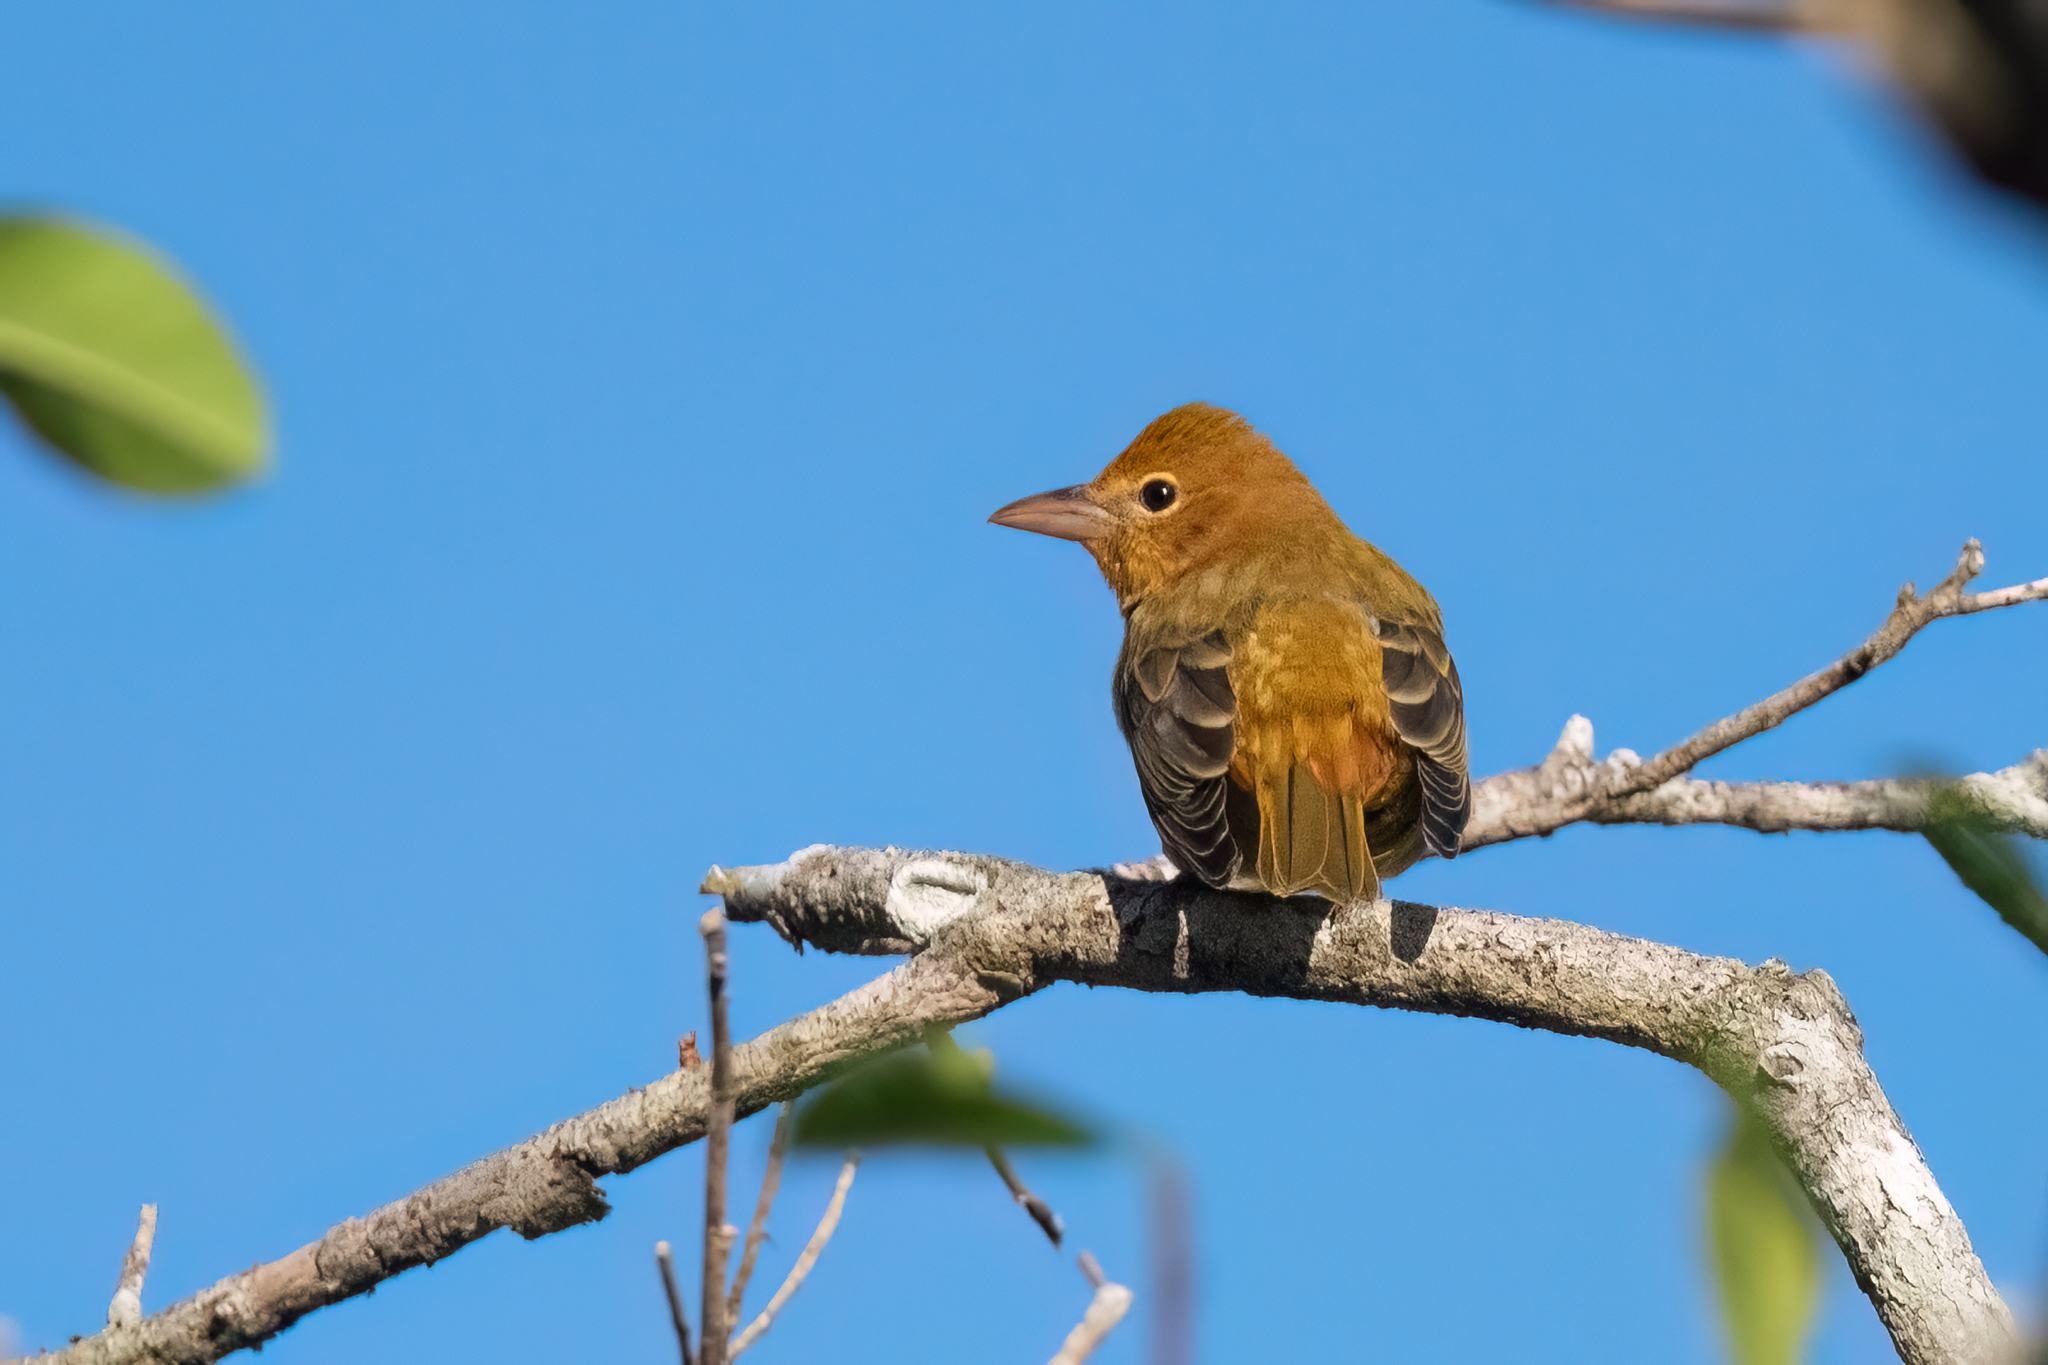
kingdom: Animalia
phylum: Chordata
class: Aves
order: Passeriformes
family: Cardinalidae
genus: Piranga
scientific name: Piranga rubra
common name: Summer tanager
